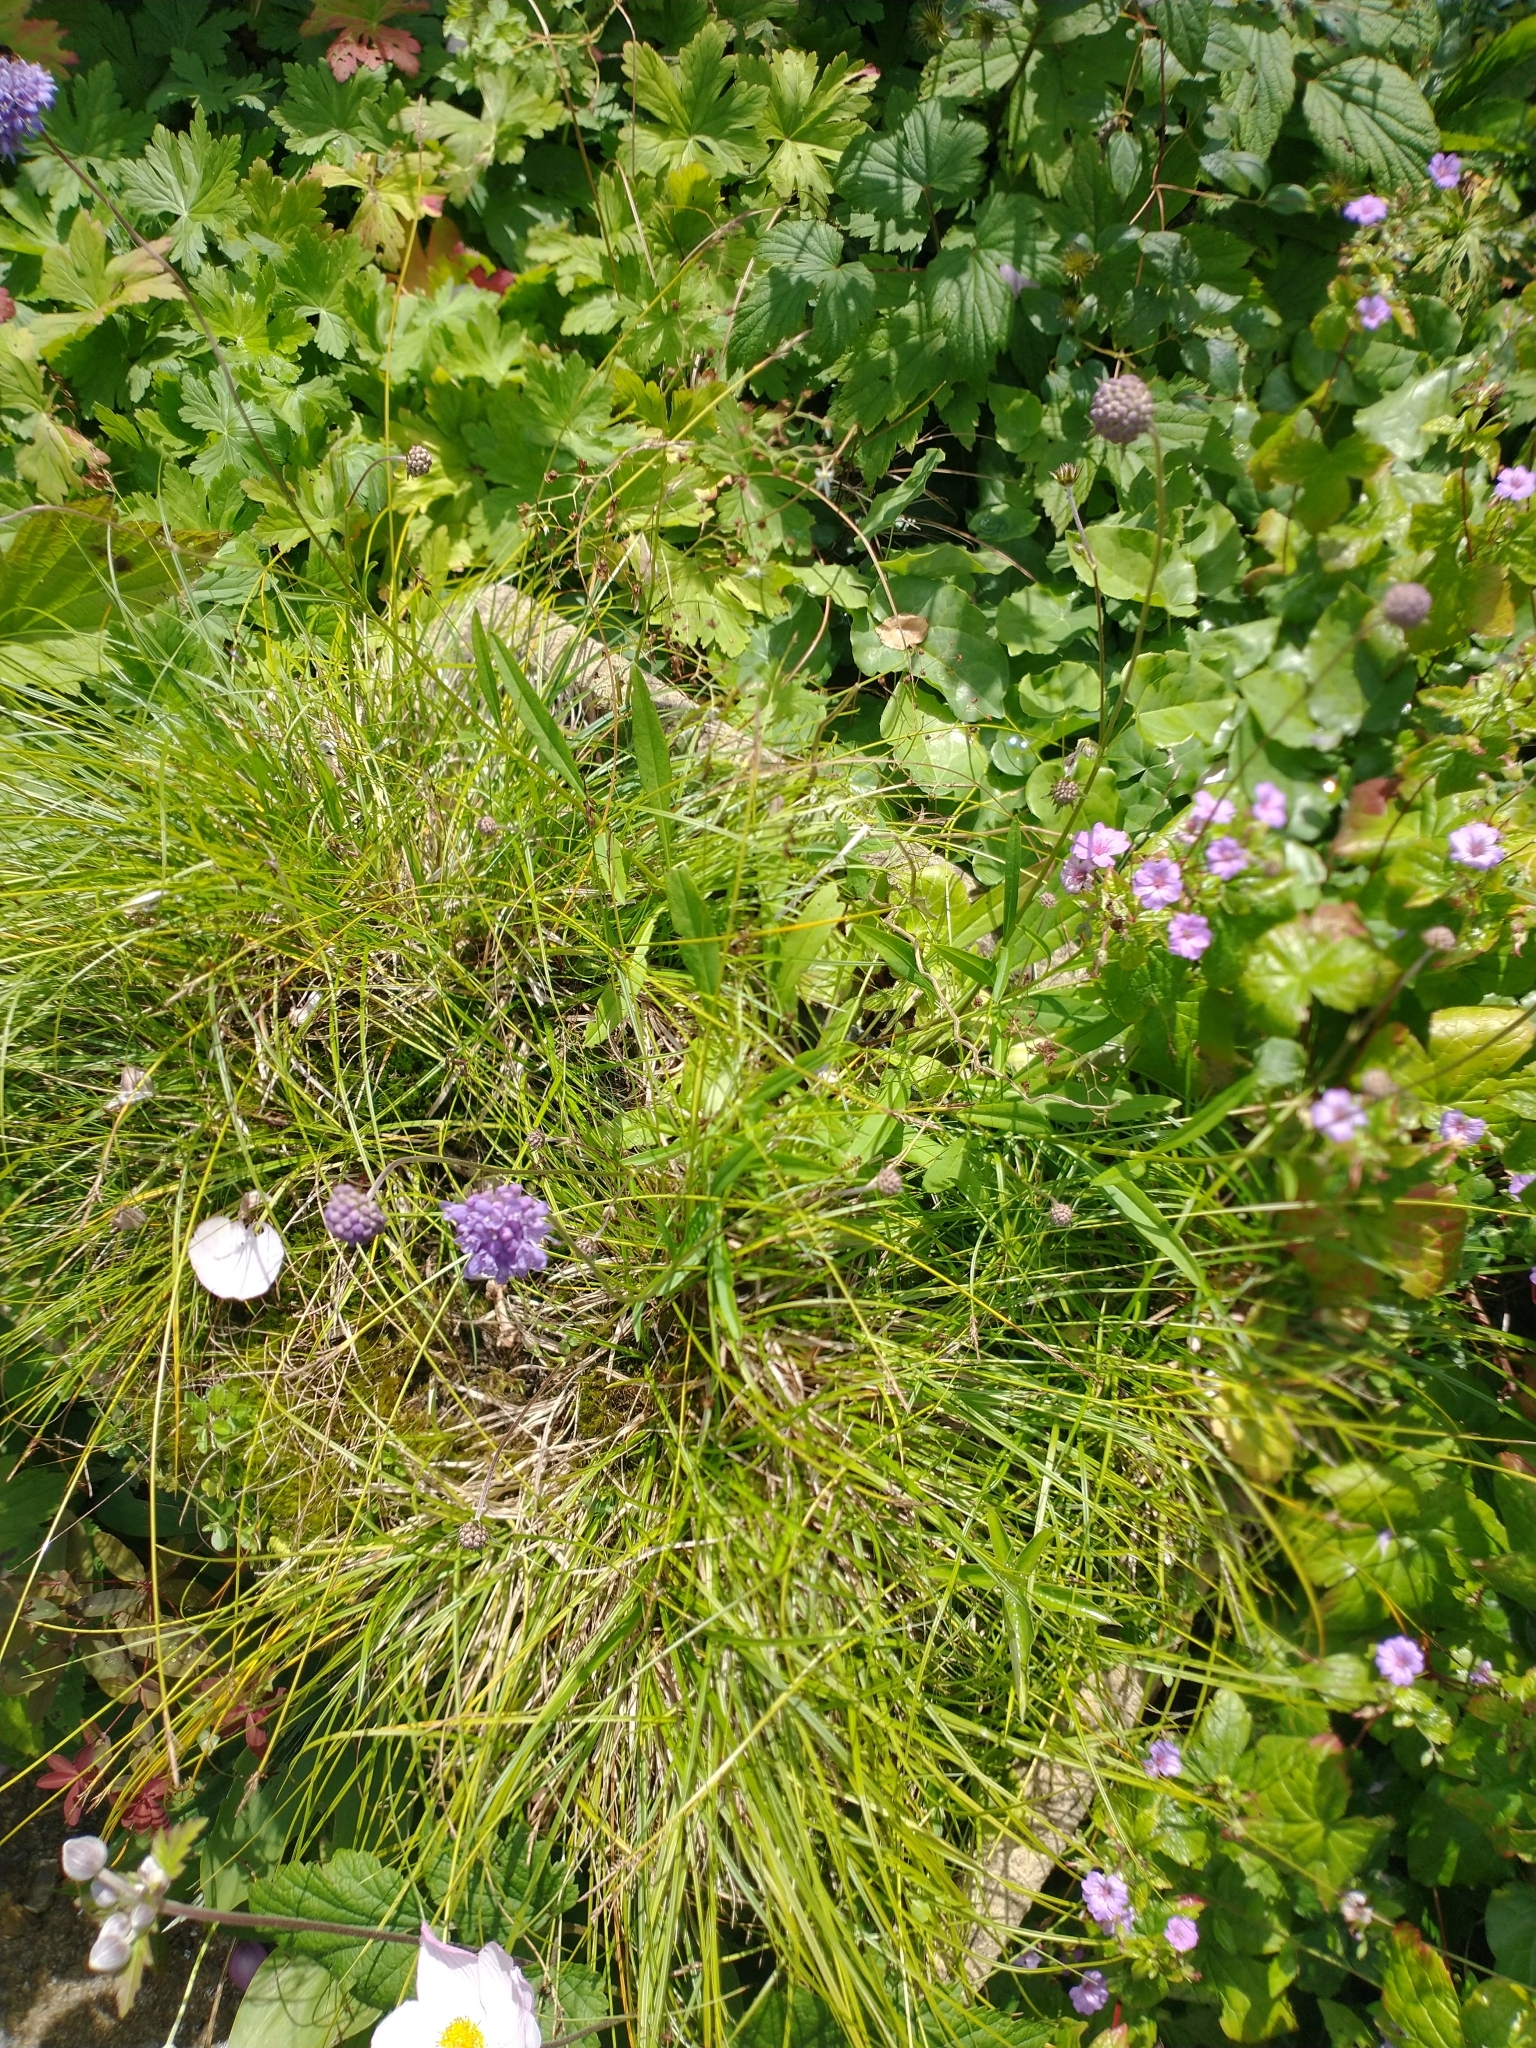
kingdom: Plantae
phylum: Tracheophyta
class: Magnoliopsida
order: Dipsacales
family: Caprifoliaceae
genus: Succisa
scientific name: Succisa pratensis
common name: Devil's-bit
